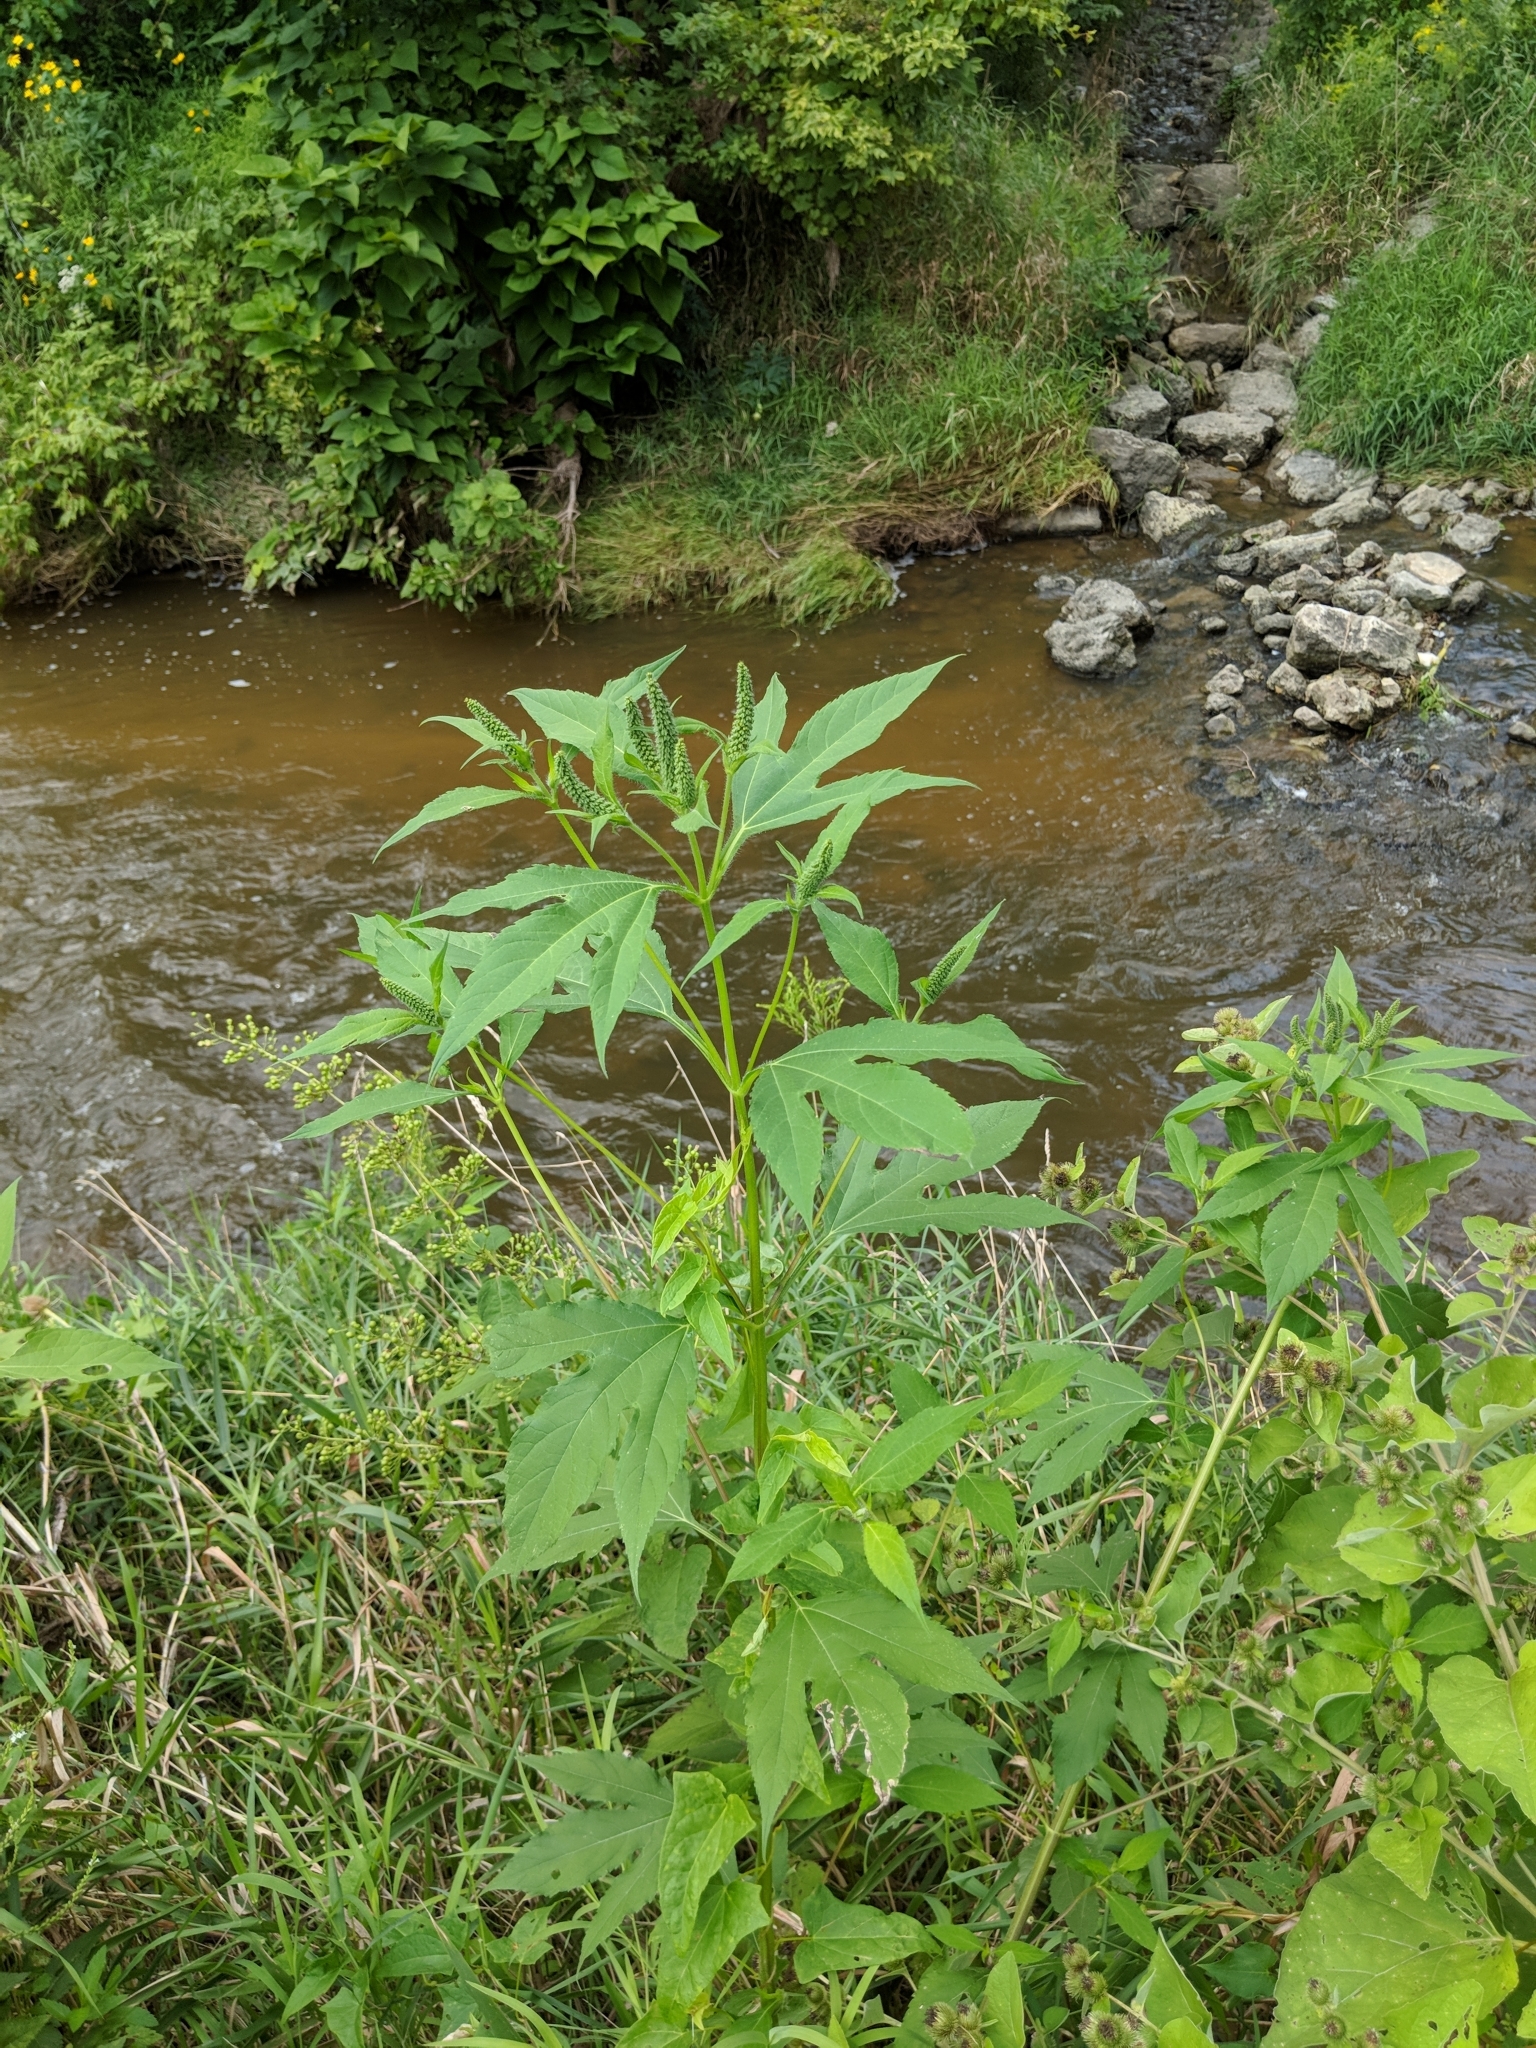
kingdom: Plantae
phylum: Tracheophyta
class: Magnoliopsida
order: Asterales
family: Asteraceae
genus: Ambrosia
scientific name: Ambrosia trifida
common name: Giant ragweed
